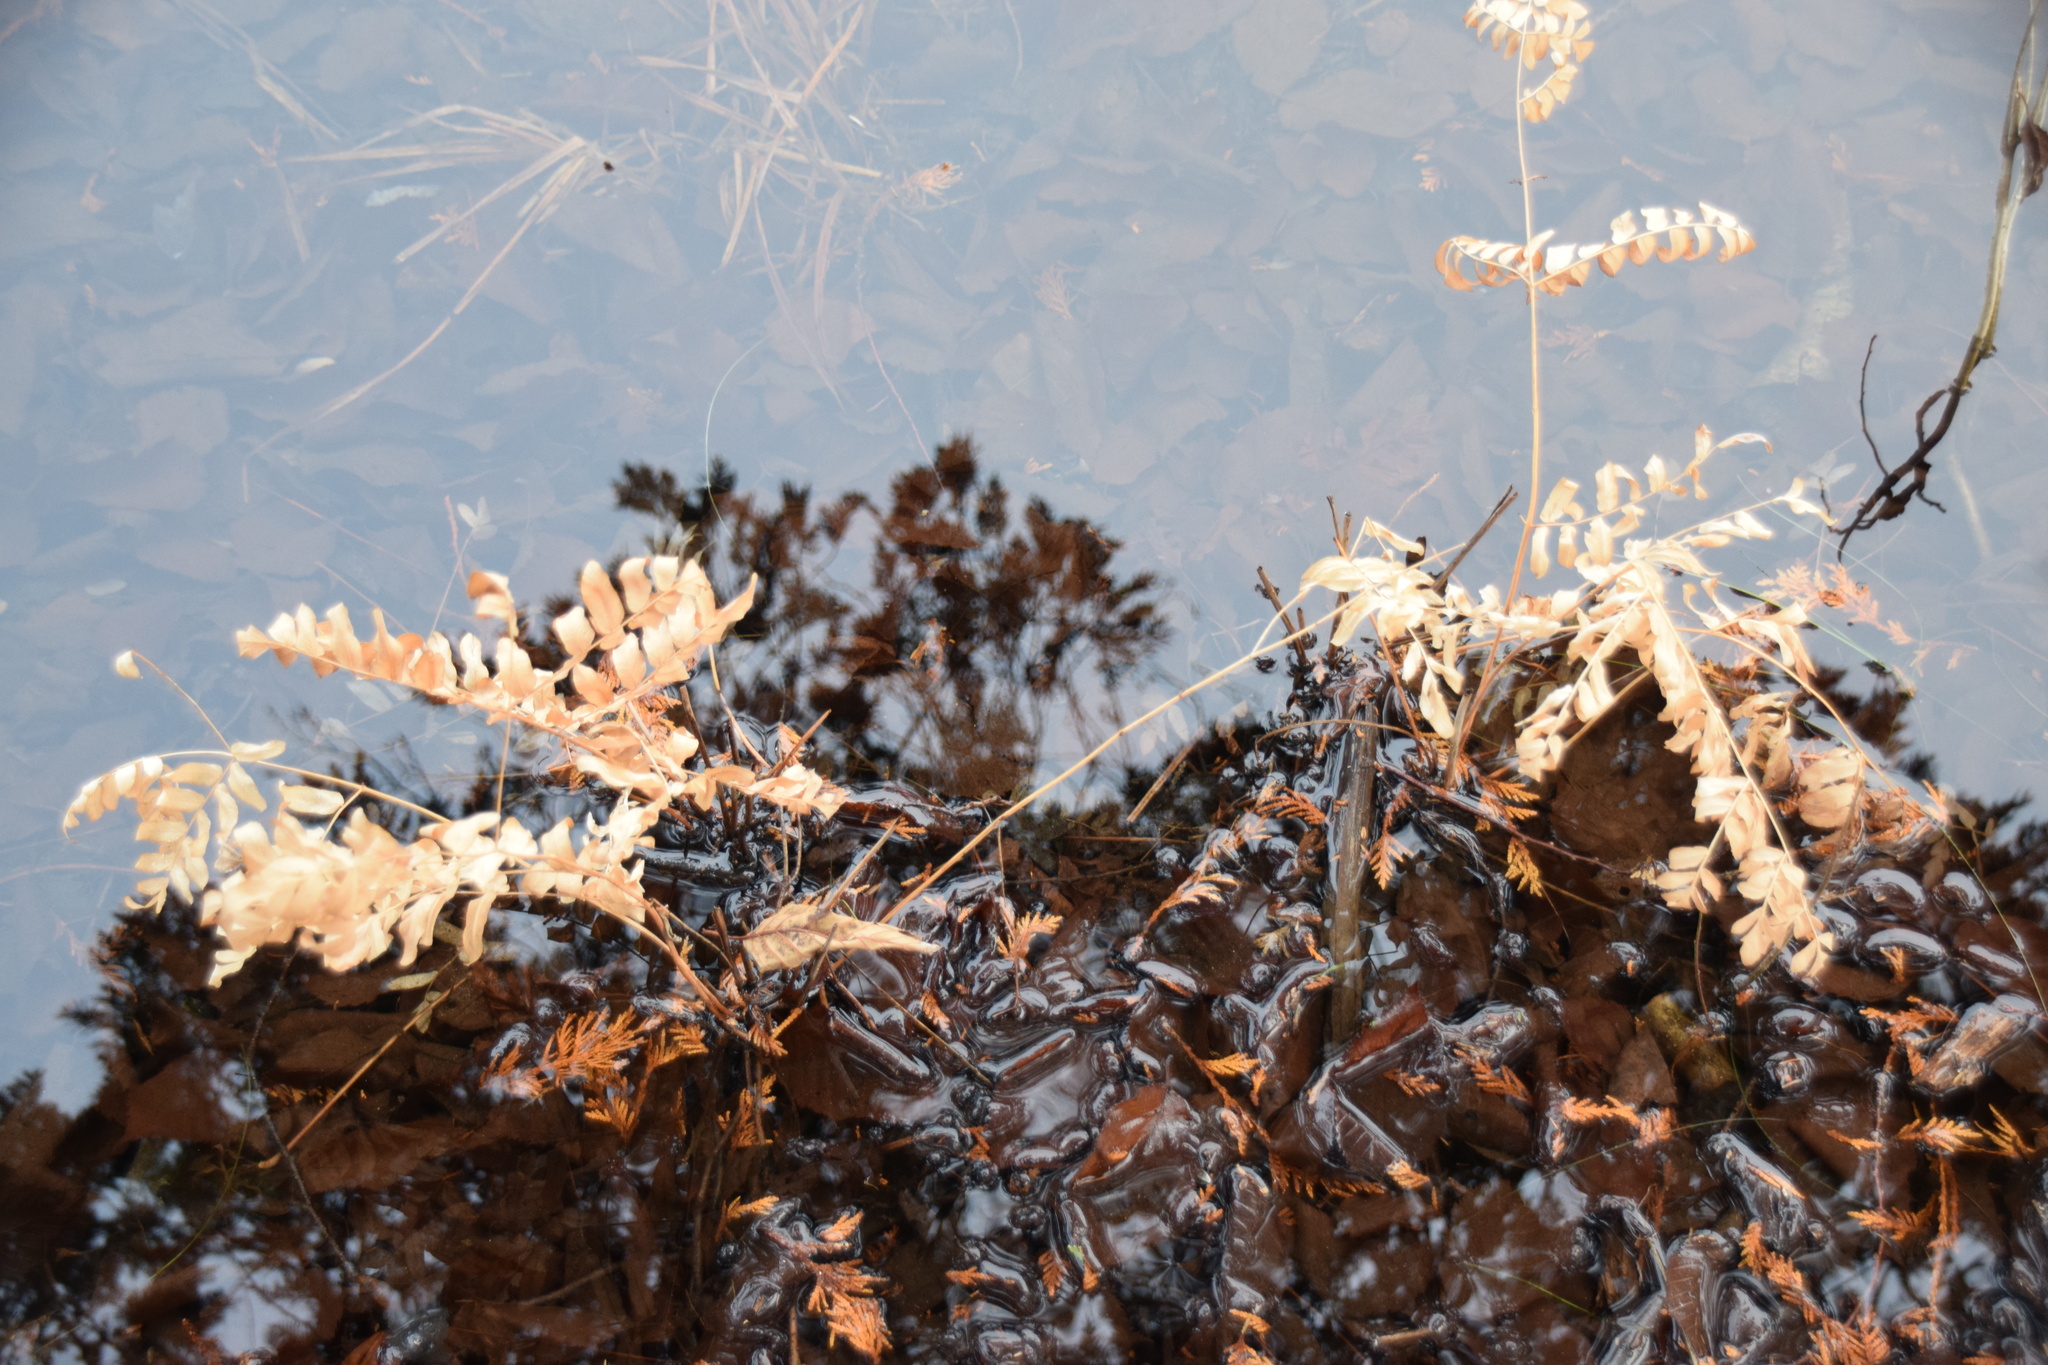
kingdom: Plantae
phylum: Tracheophyta
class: Polypodiopsida
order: Osmundales
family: Osmundaceae
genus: Osmunda
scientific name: Osmunda spectabilis
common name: American royal fern
